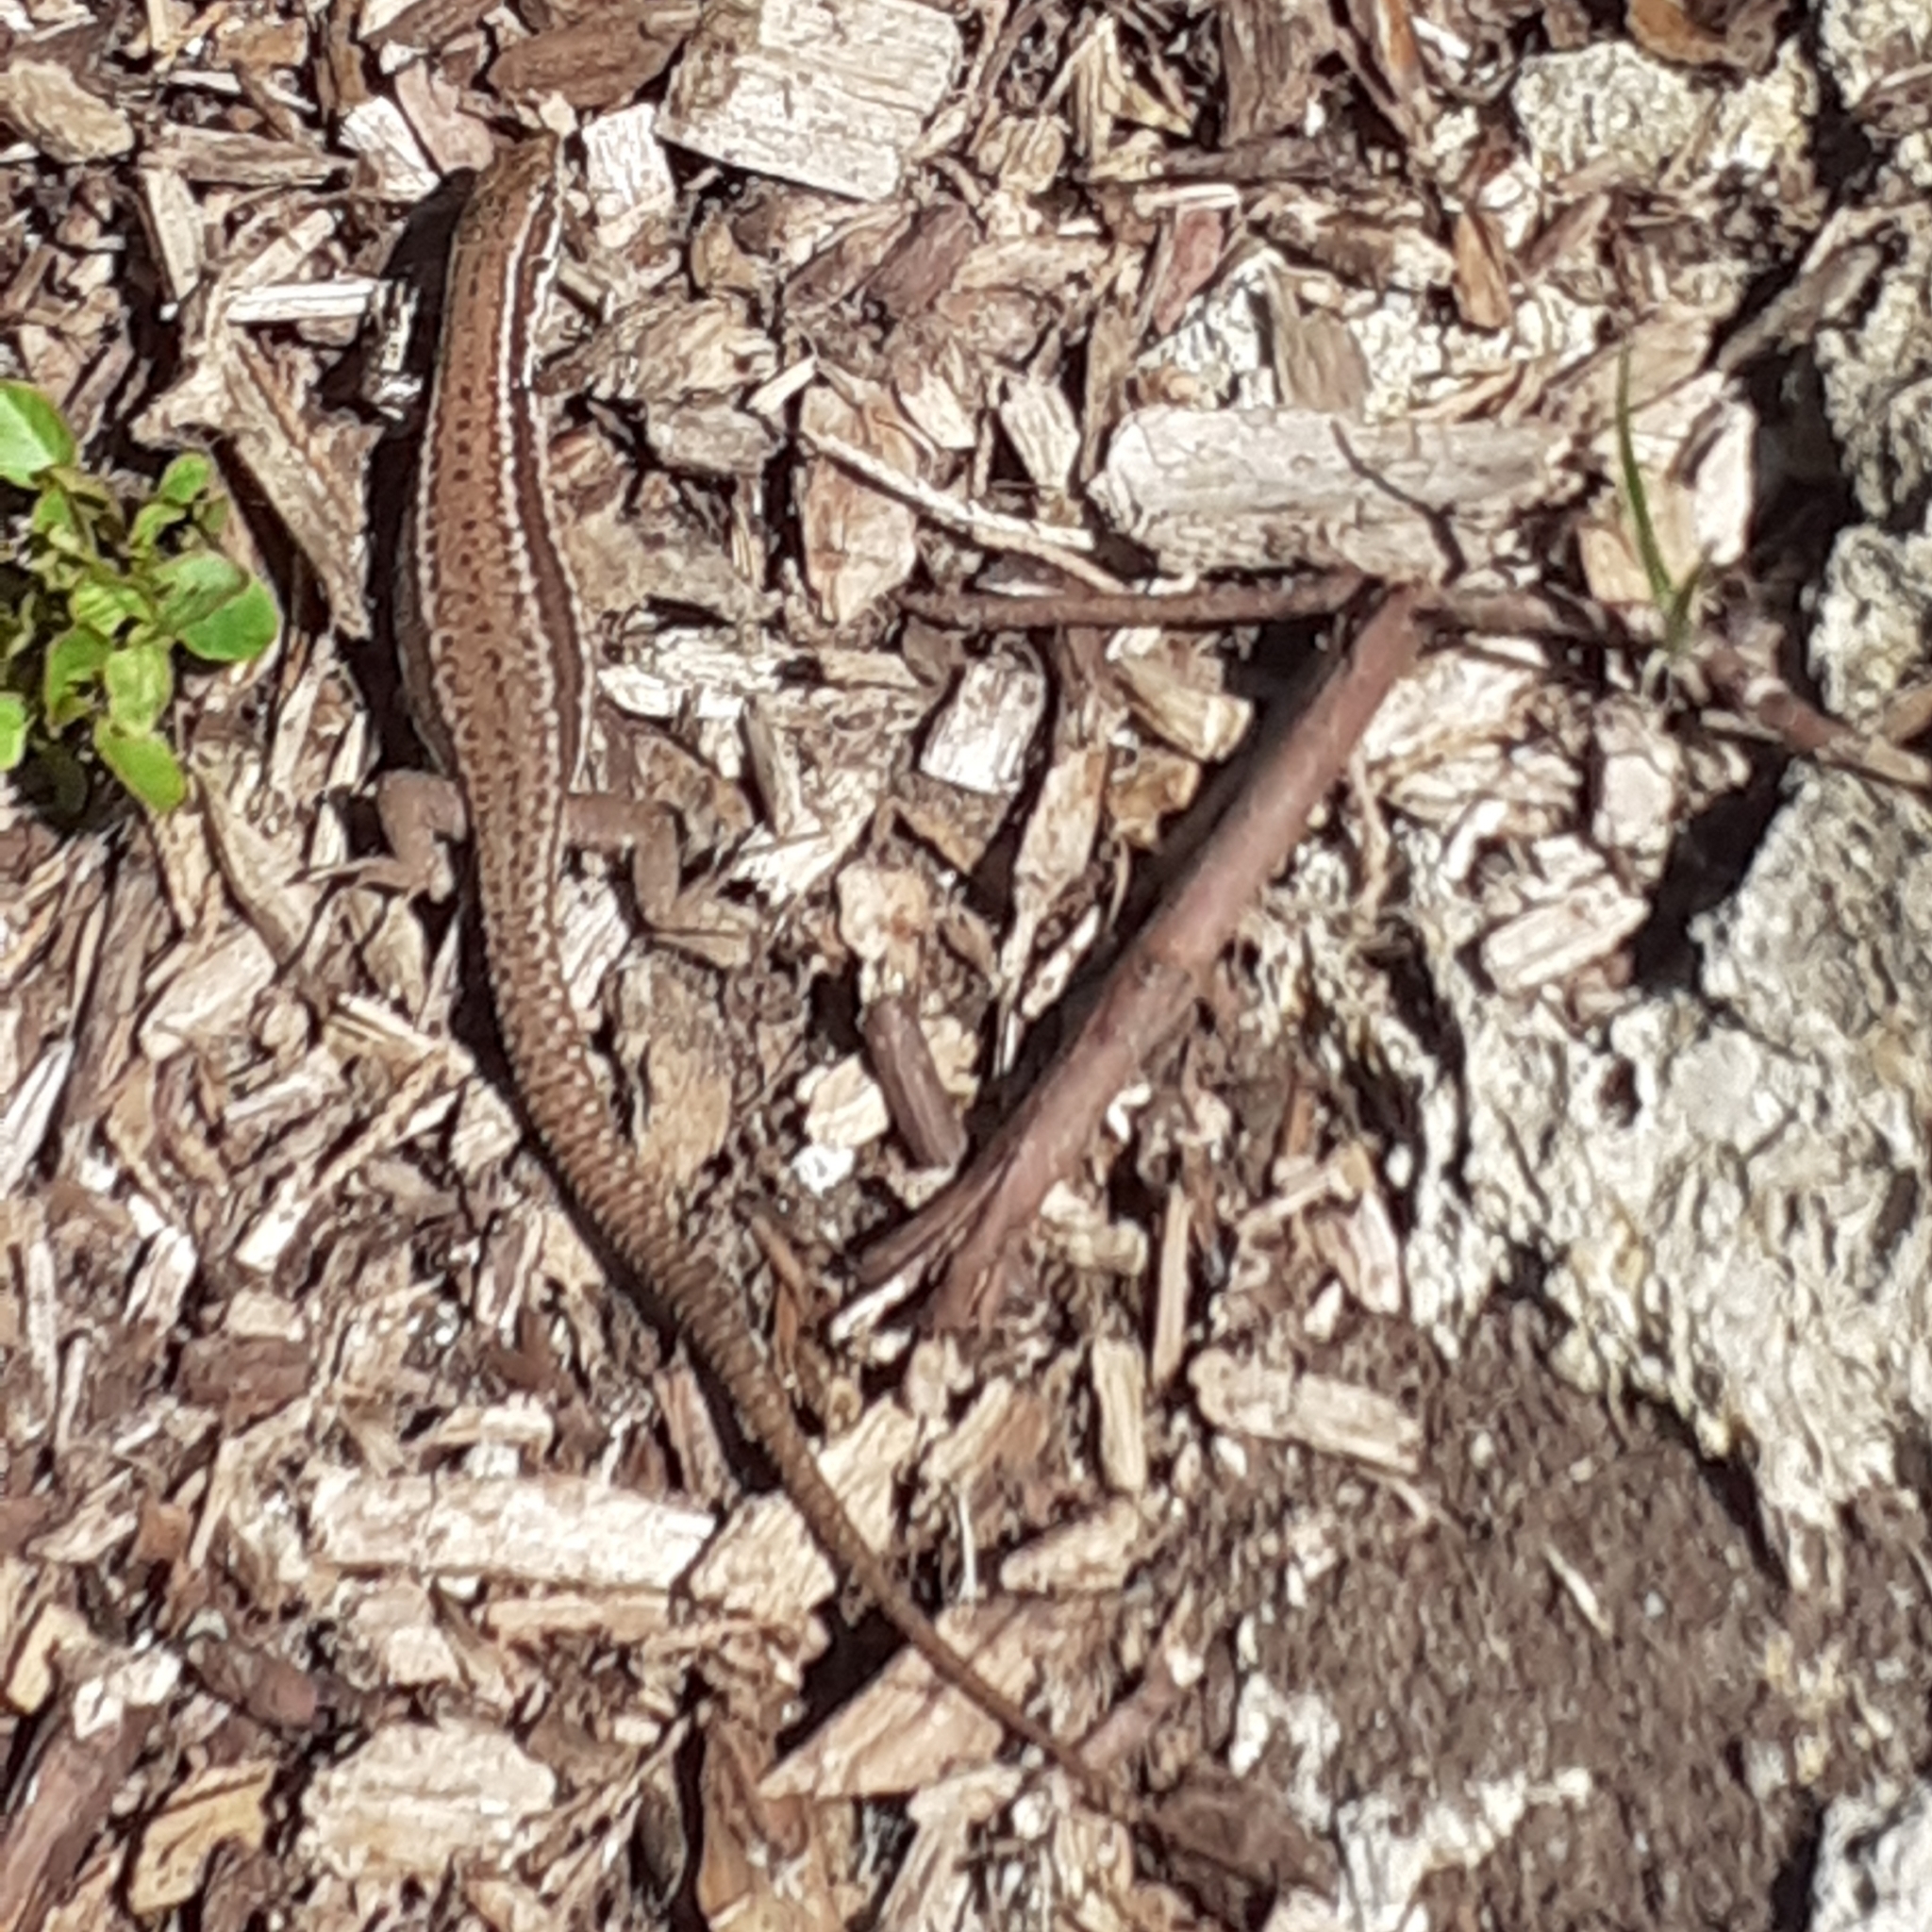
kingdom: Animalia
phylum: Chordata
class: Squamata
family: Lacertidae
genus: Podarcis
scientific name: Podarcis muralis
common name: Common wall lizard
